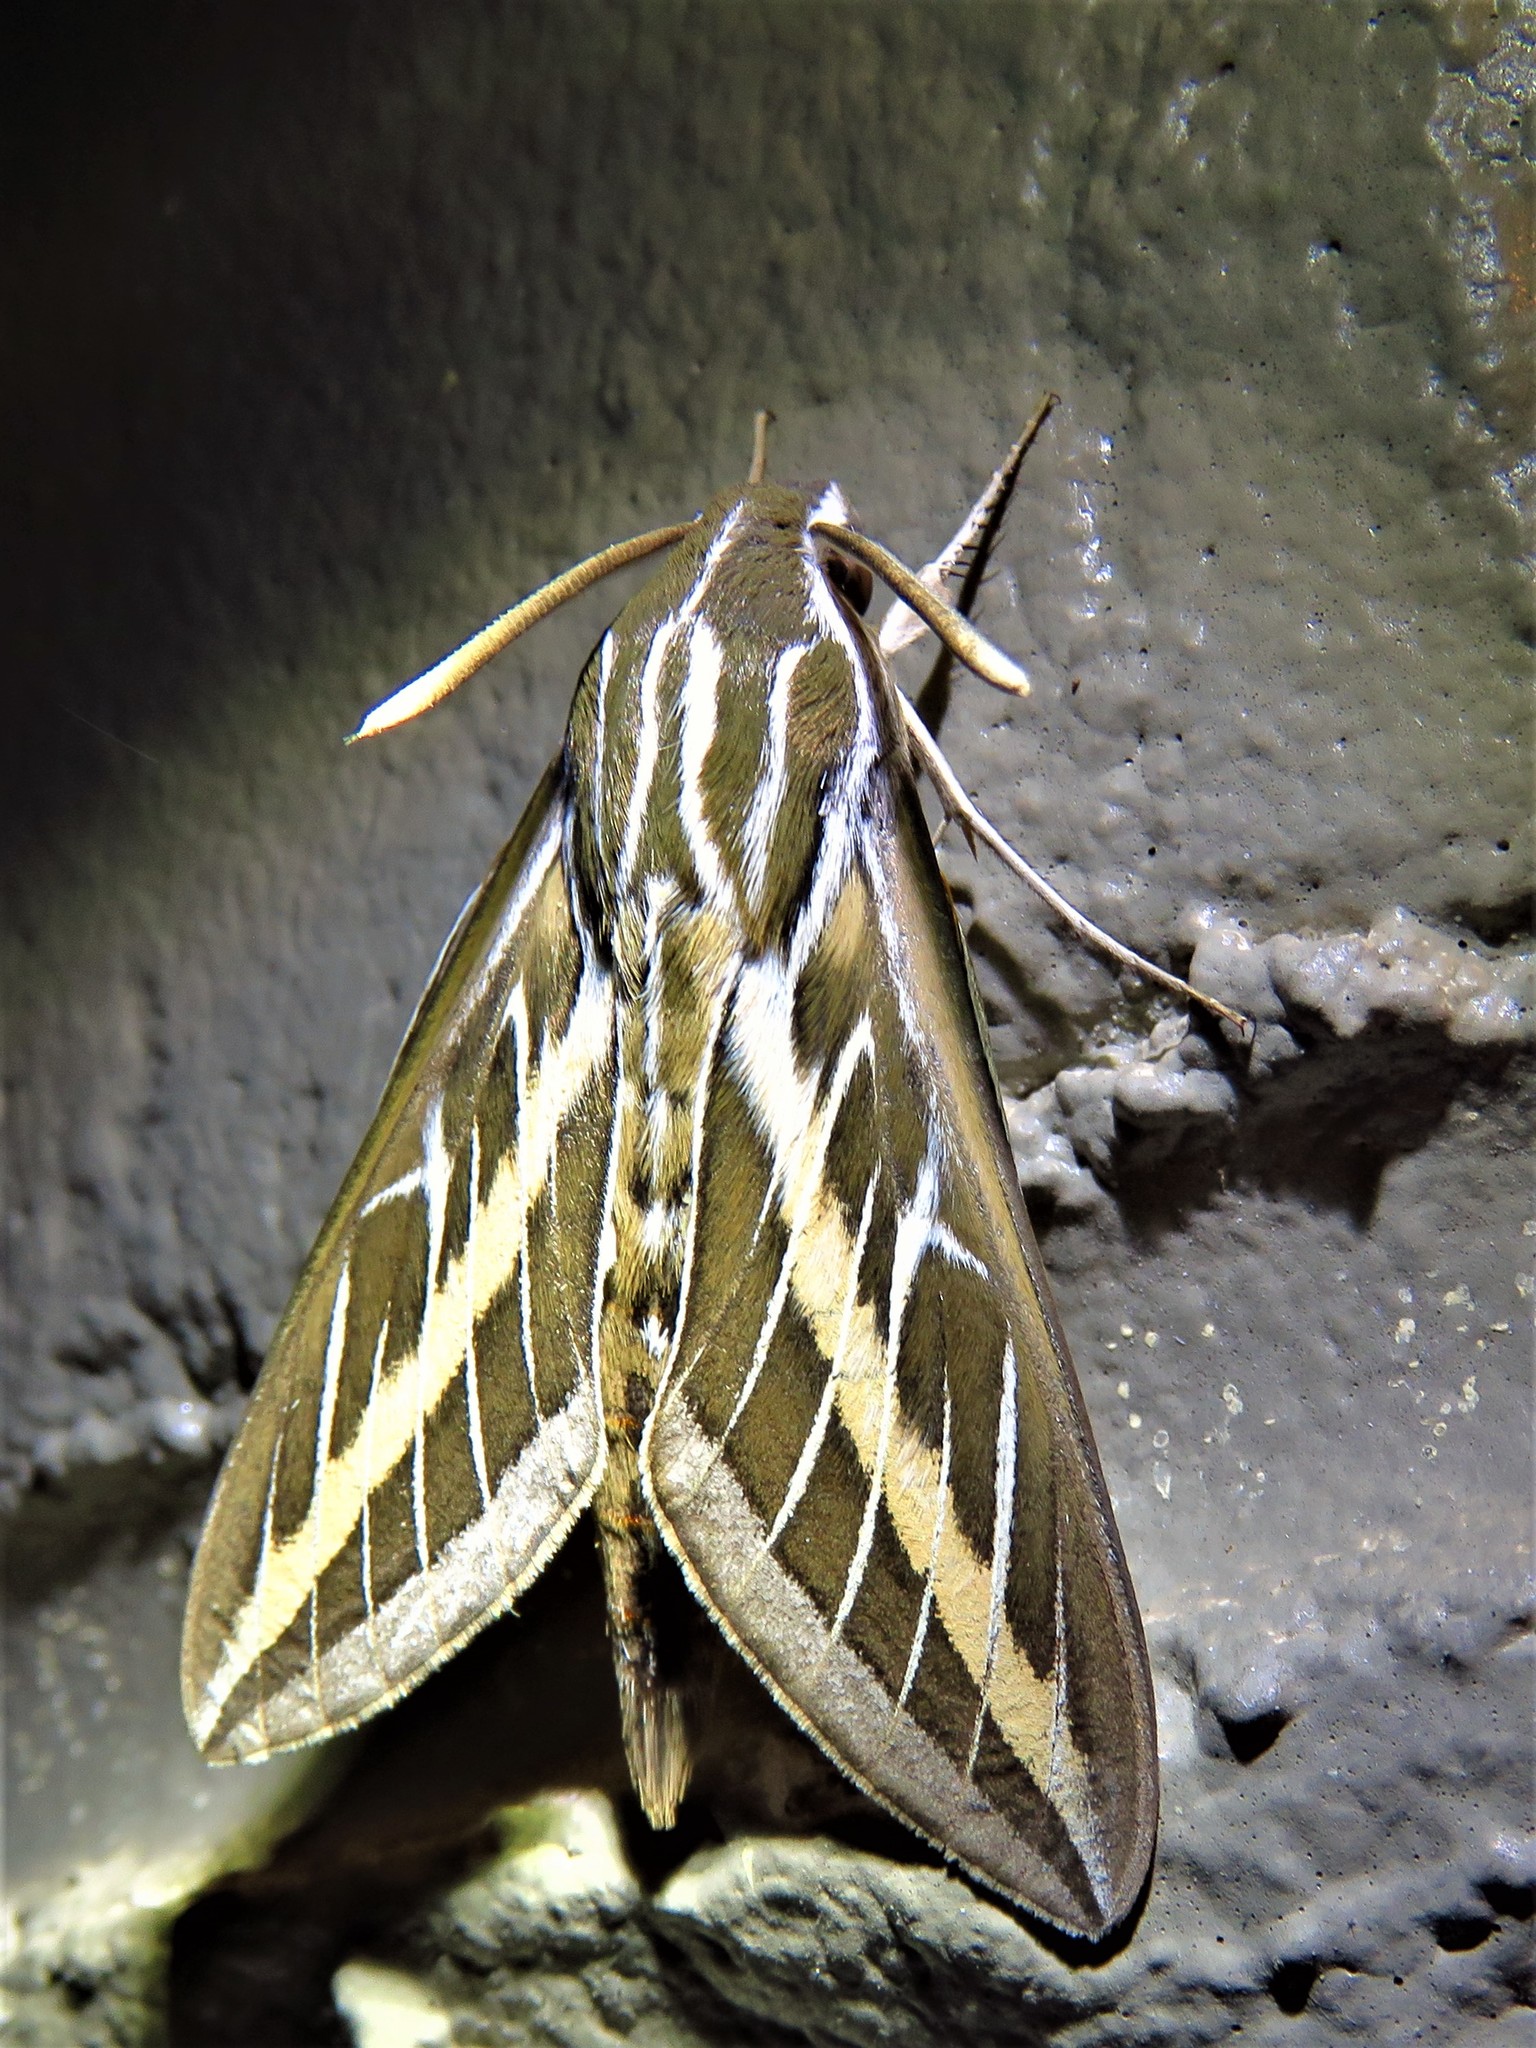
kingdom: Animalia
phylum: Arthropoda
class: Insecta
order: Lepidoptera
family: Sphingidae
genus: Hyles
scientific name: Hyles lineata
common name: White-lined sphinx
